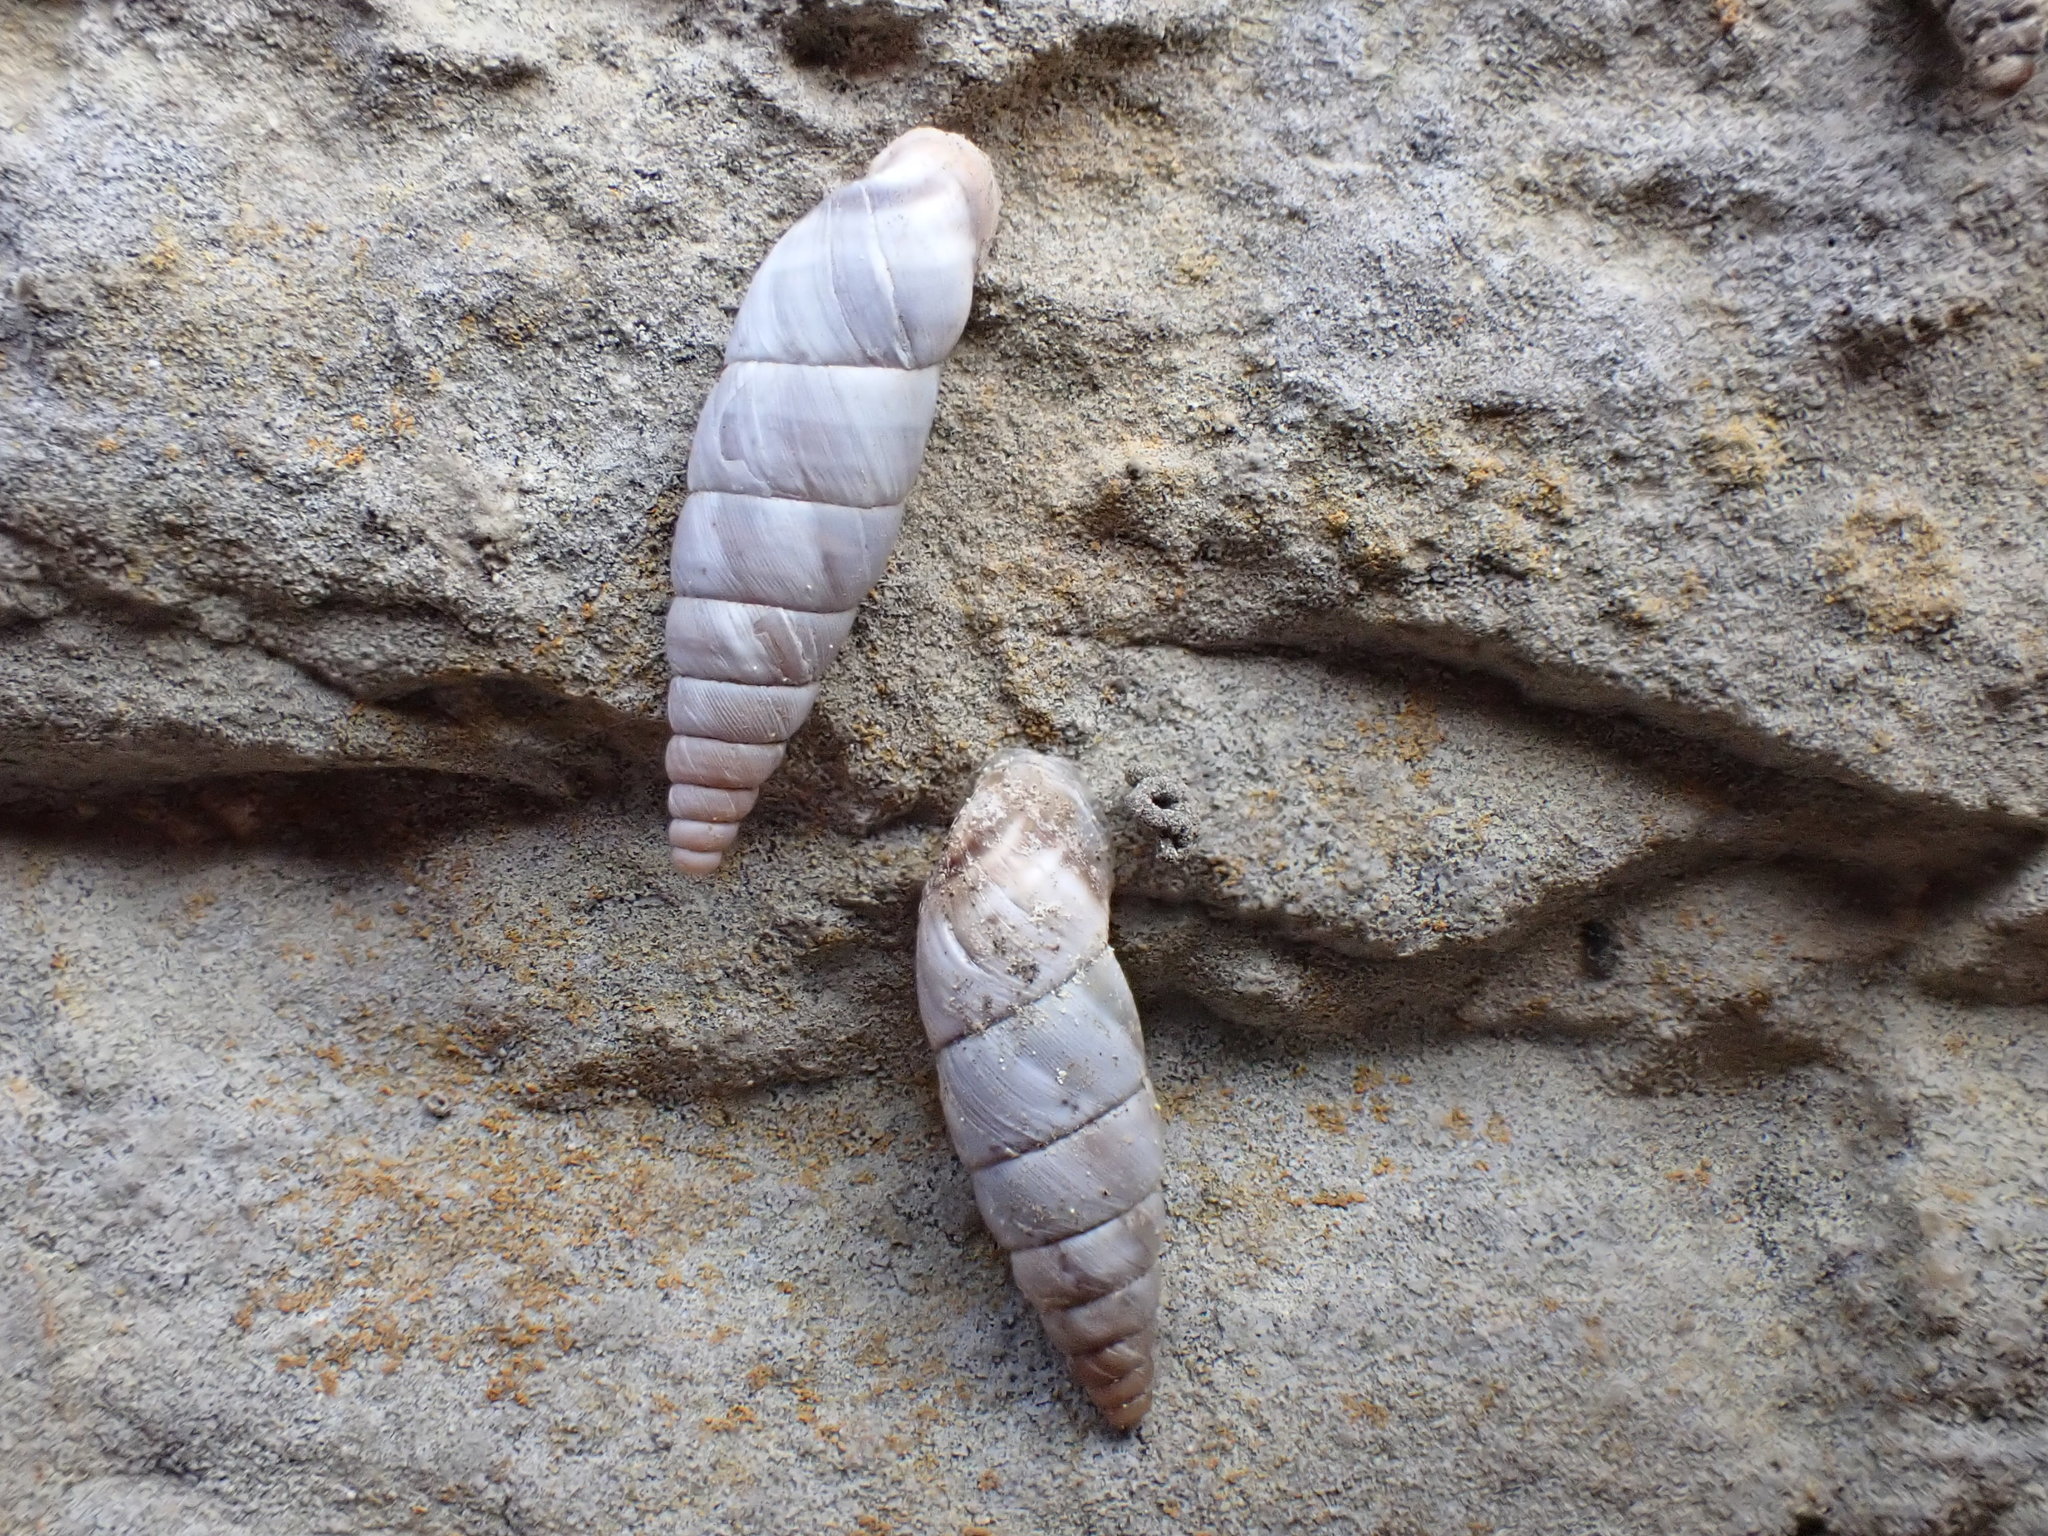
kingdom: Animalia
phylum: Mollusca
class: Gastropoda
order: Stylommatophora
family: Chondrinidae
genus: Solatopupa
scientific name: Solatopupa similis
